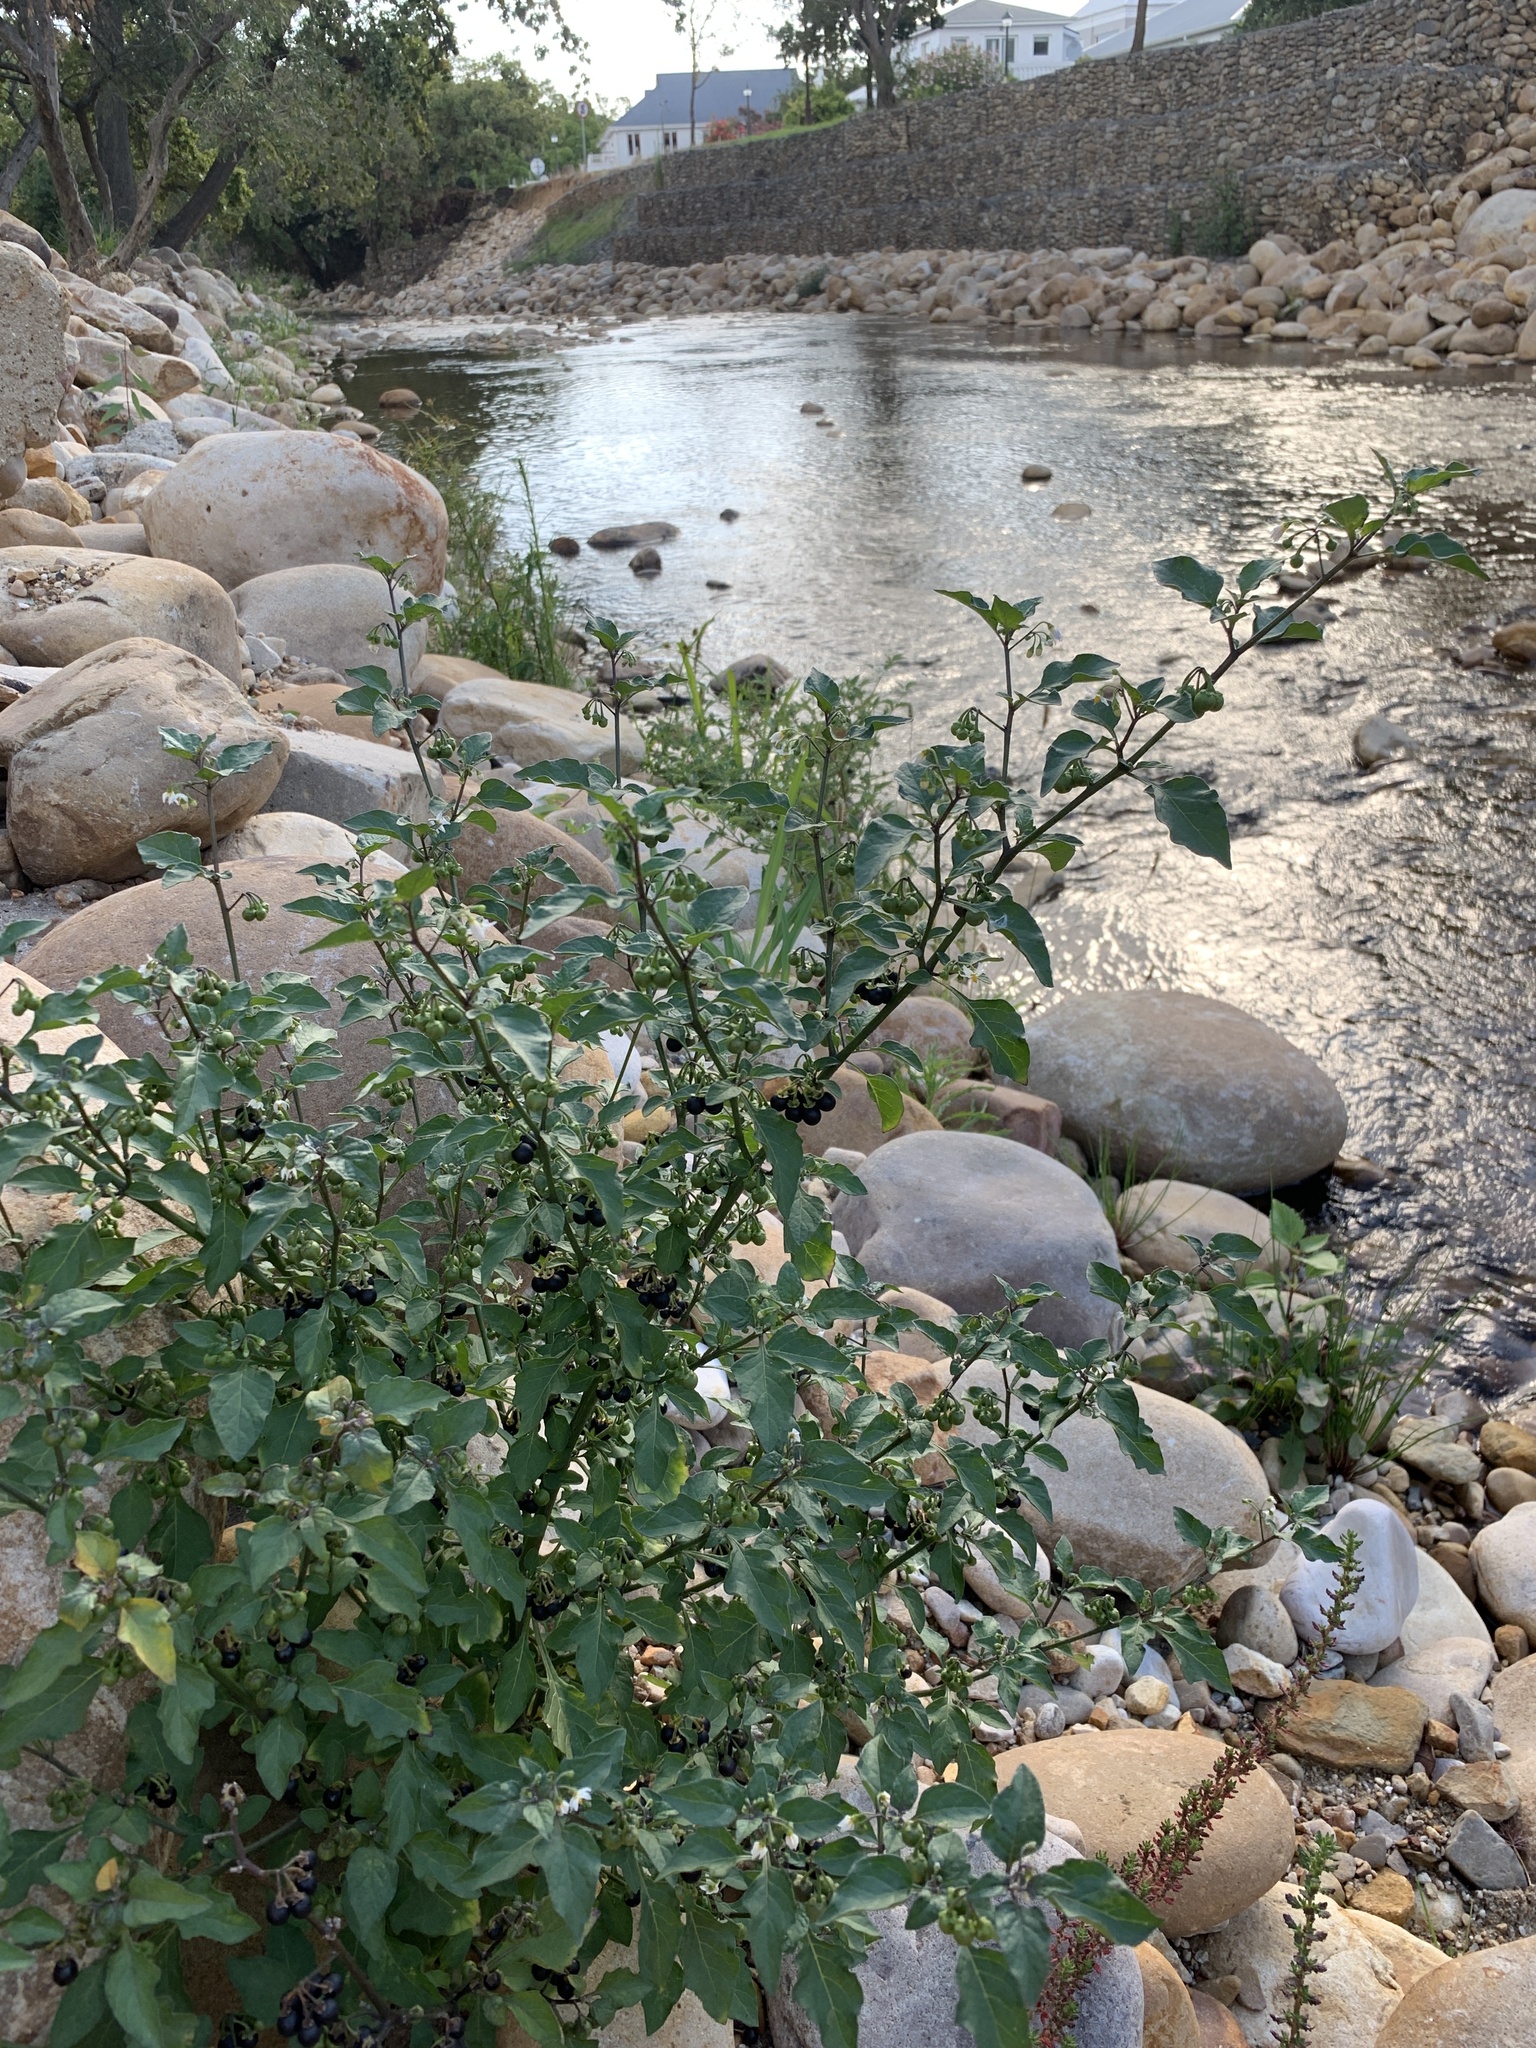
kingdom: Plantae
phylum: Tracheophyta
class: Magnoliopsida
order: Solanales
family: Solanaceae
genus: Solanum
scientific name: Solanum nigrum
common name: Black nightshade
